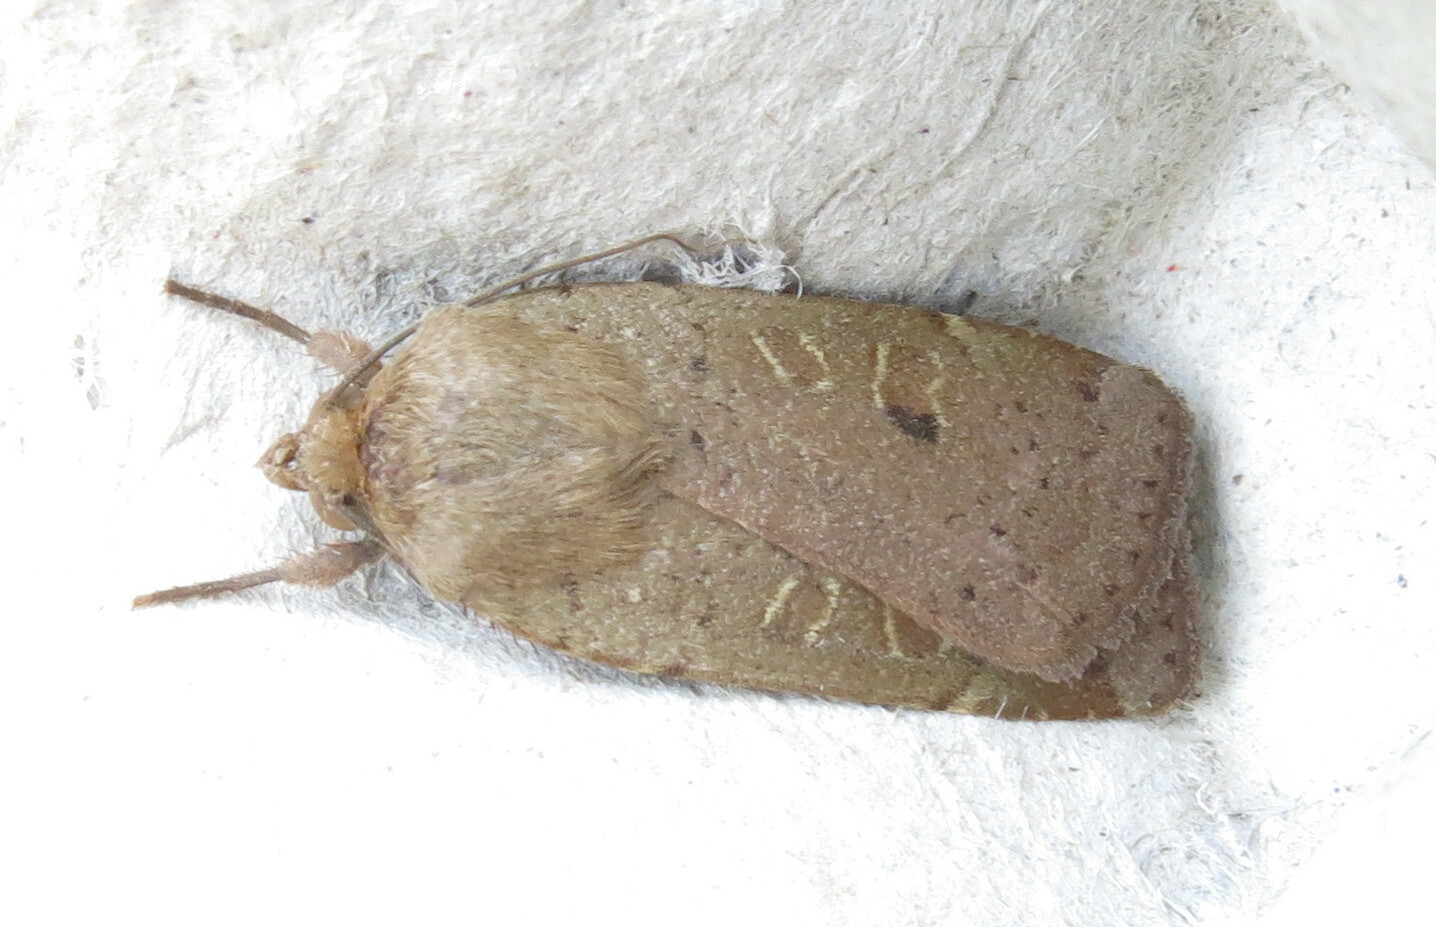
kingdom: Animalia
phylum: Arthropoda
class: Insecta
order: Lepidoptera
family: Noctuidae
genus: Noctua
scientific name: Noctua comes
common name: Lesser yellow underwing
